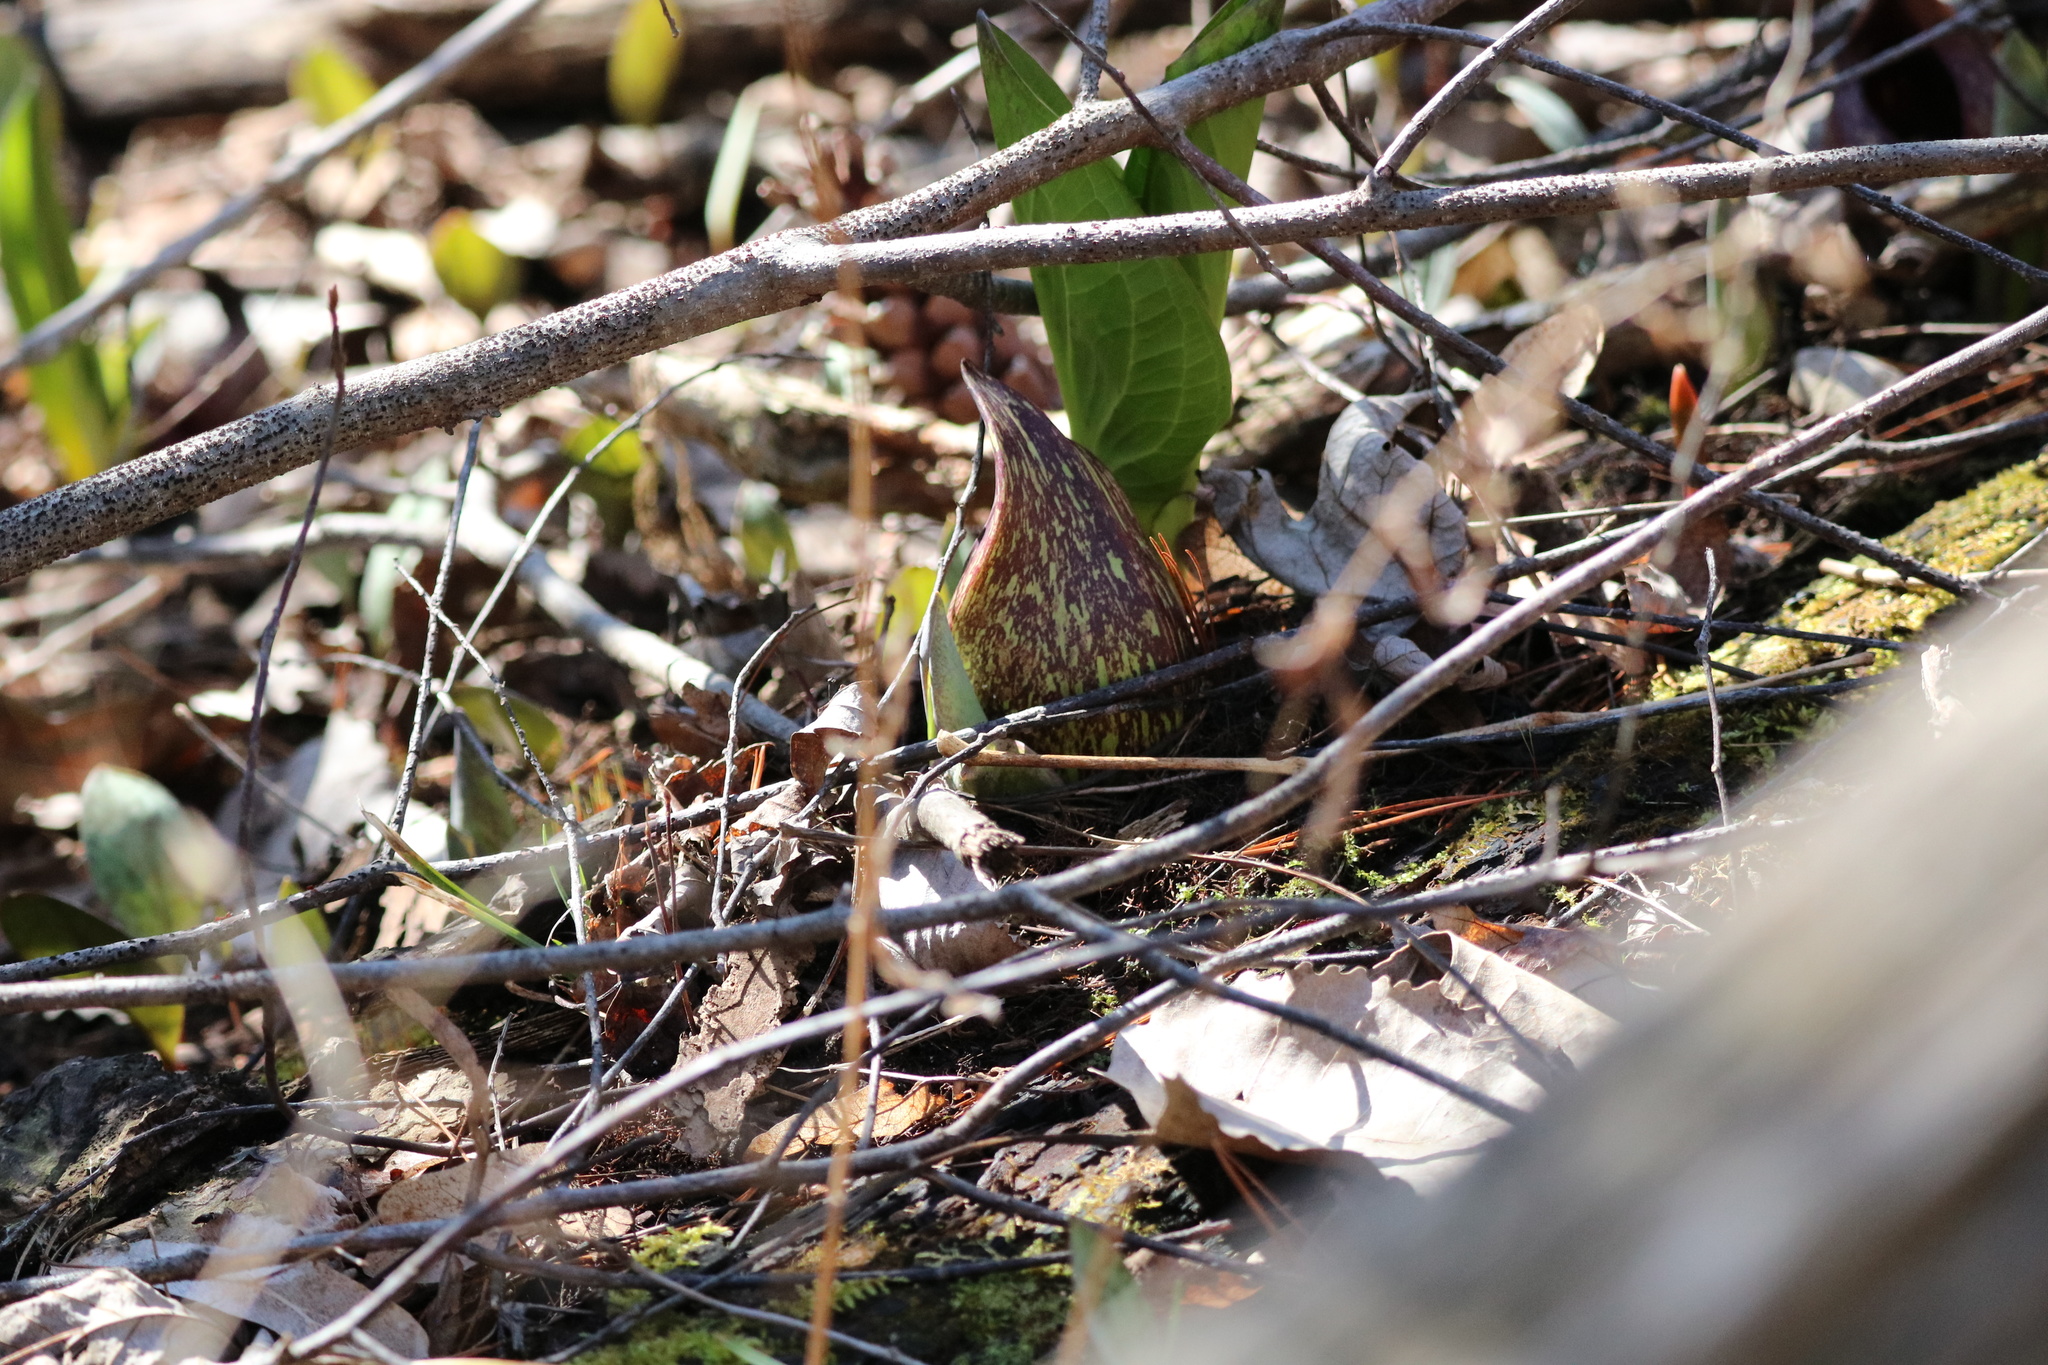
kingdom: Plantae
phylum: Tracheophyta
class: Liliopsida
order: Alismatales
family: Araceae
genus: Symplocarpus
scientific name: Symplocarpus foetidus
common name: Eastern skunk cabbage
